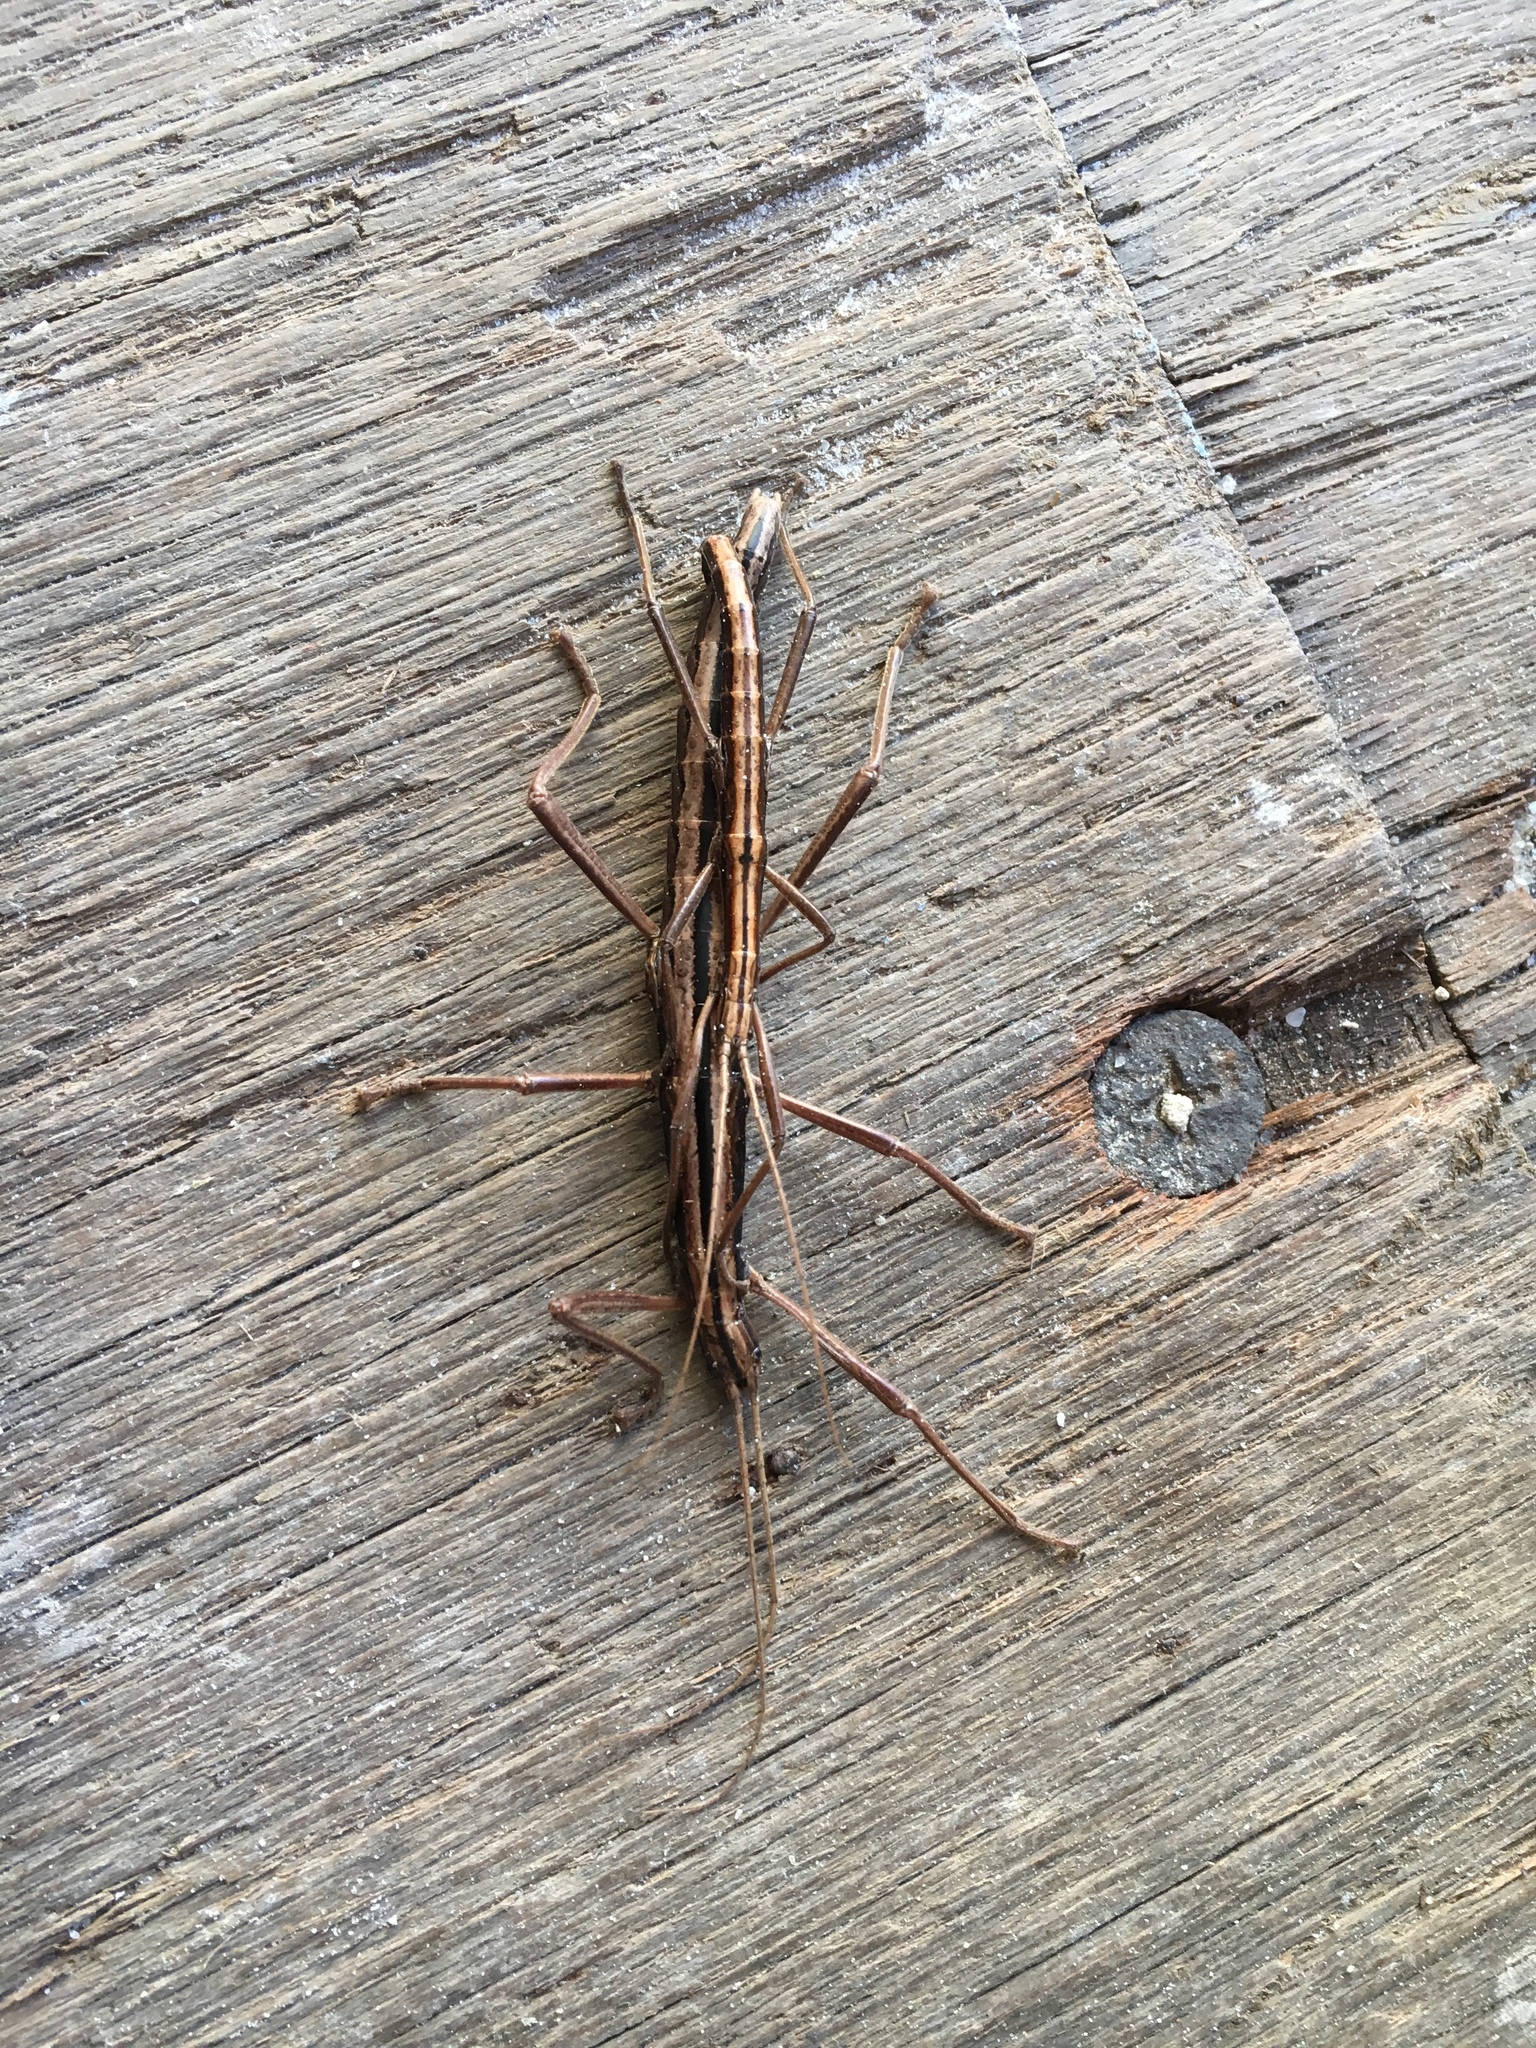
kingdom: Animalia
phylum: Arthropoda
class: Insecta
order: Phasmida
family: Pseudophasmatidae
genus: Anisomorpha
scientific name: Anisomorpha buprestoides
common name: Florida stick insect
